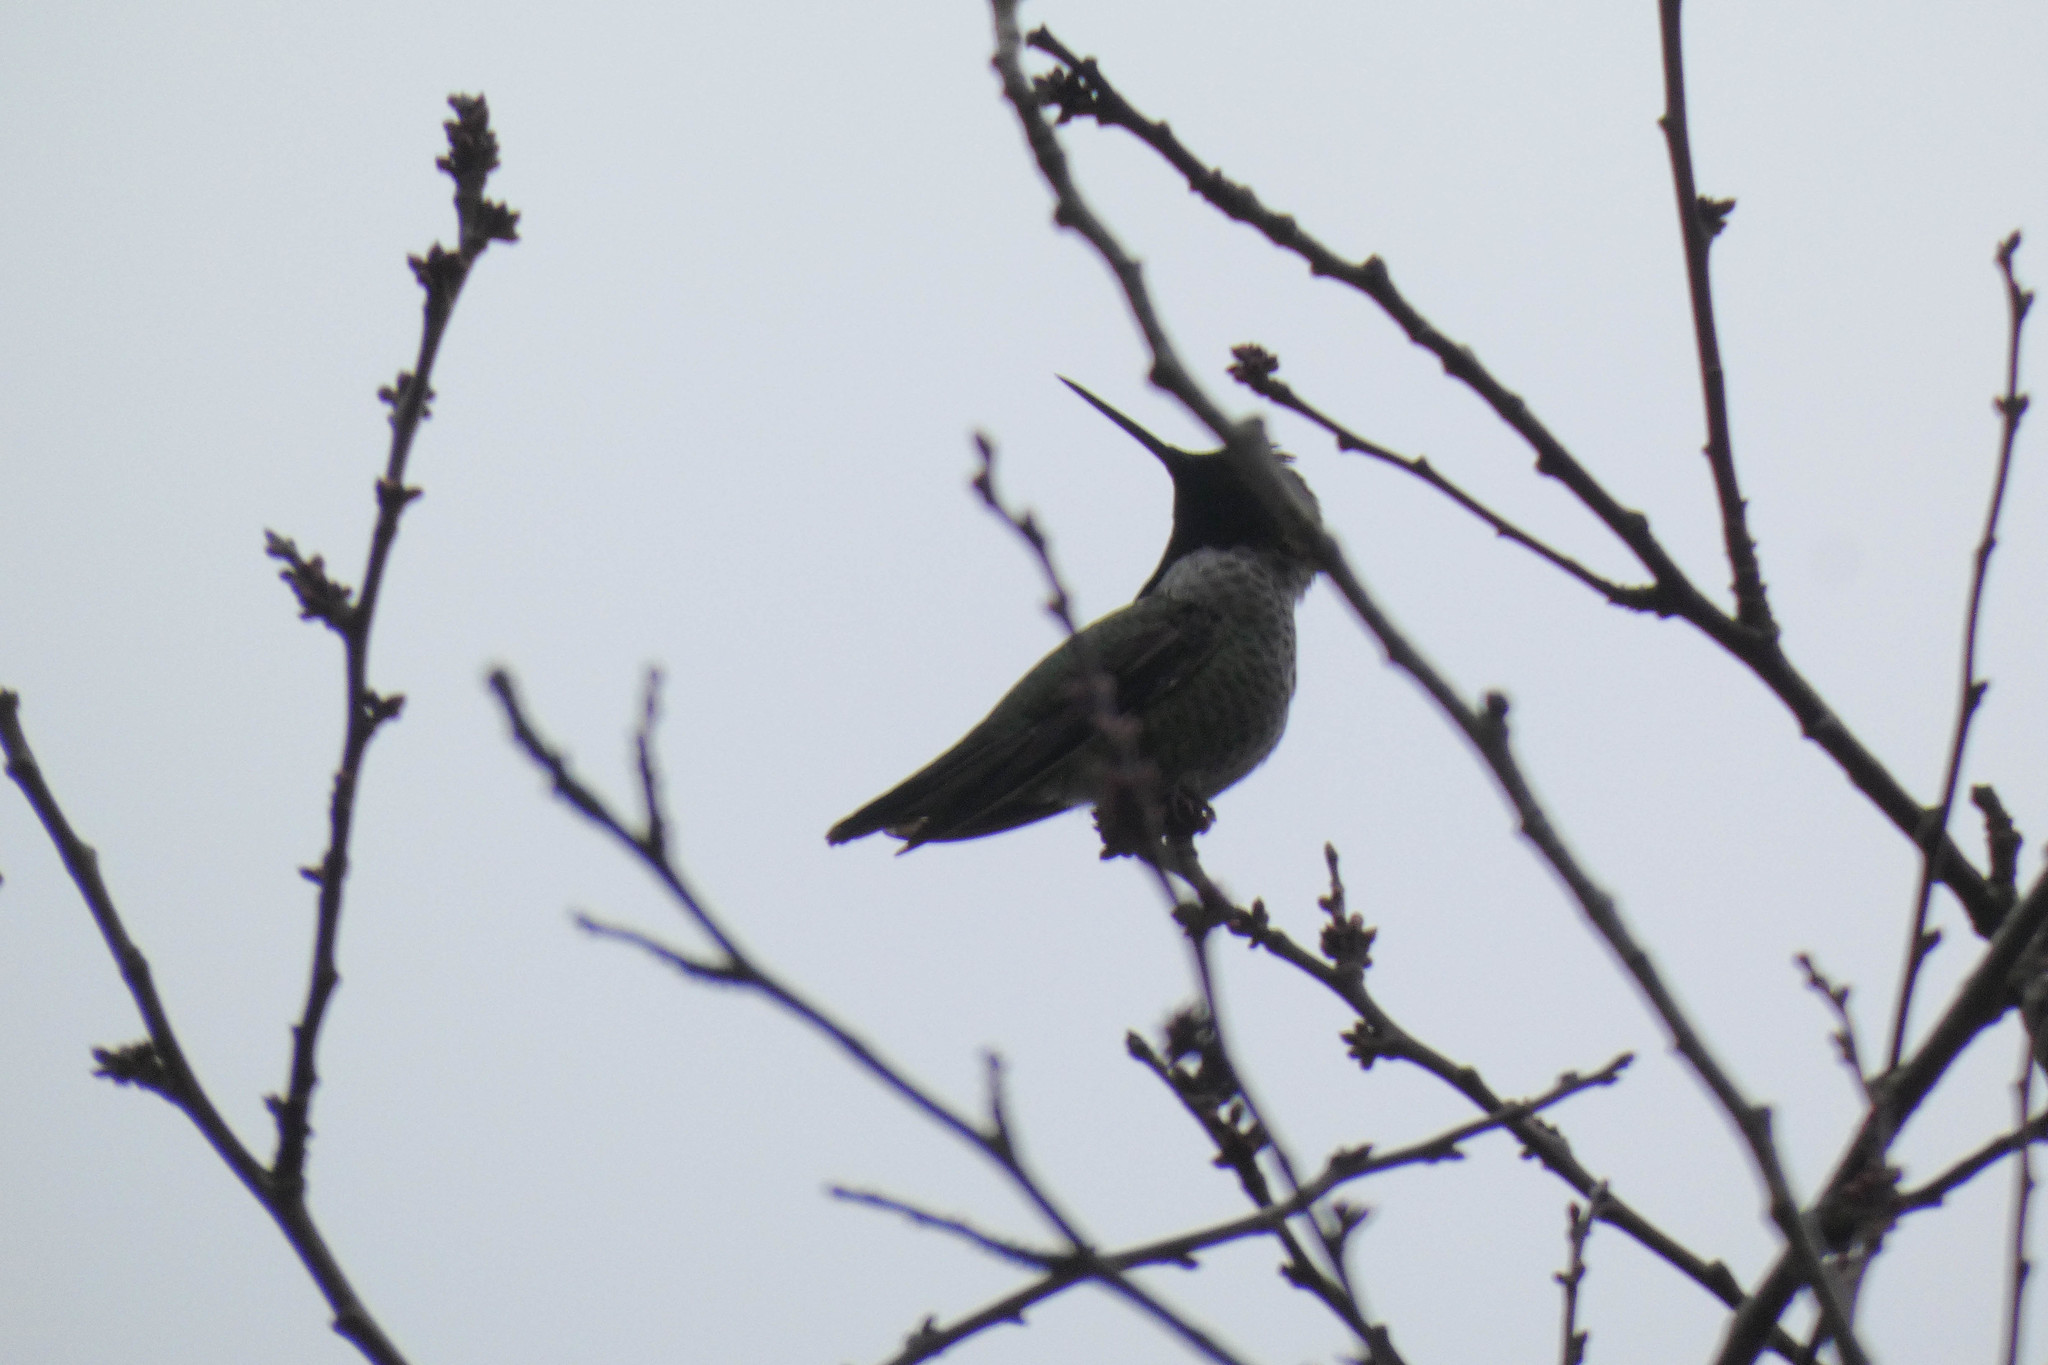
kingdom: Animalia
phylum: Chordata
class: Aves
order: Apodiformes
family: Trochilidae
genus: Calypte
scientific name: Calypte anna
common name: Anna's hummingbird
